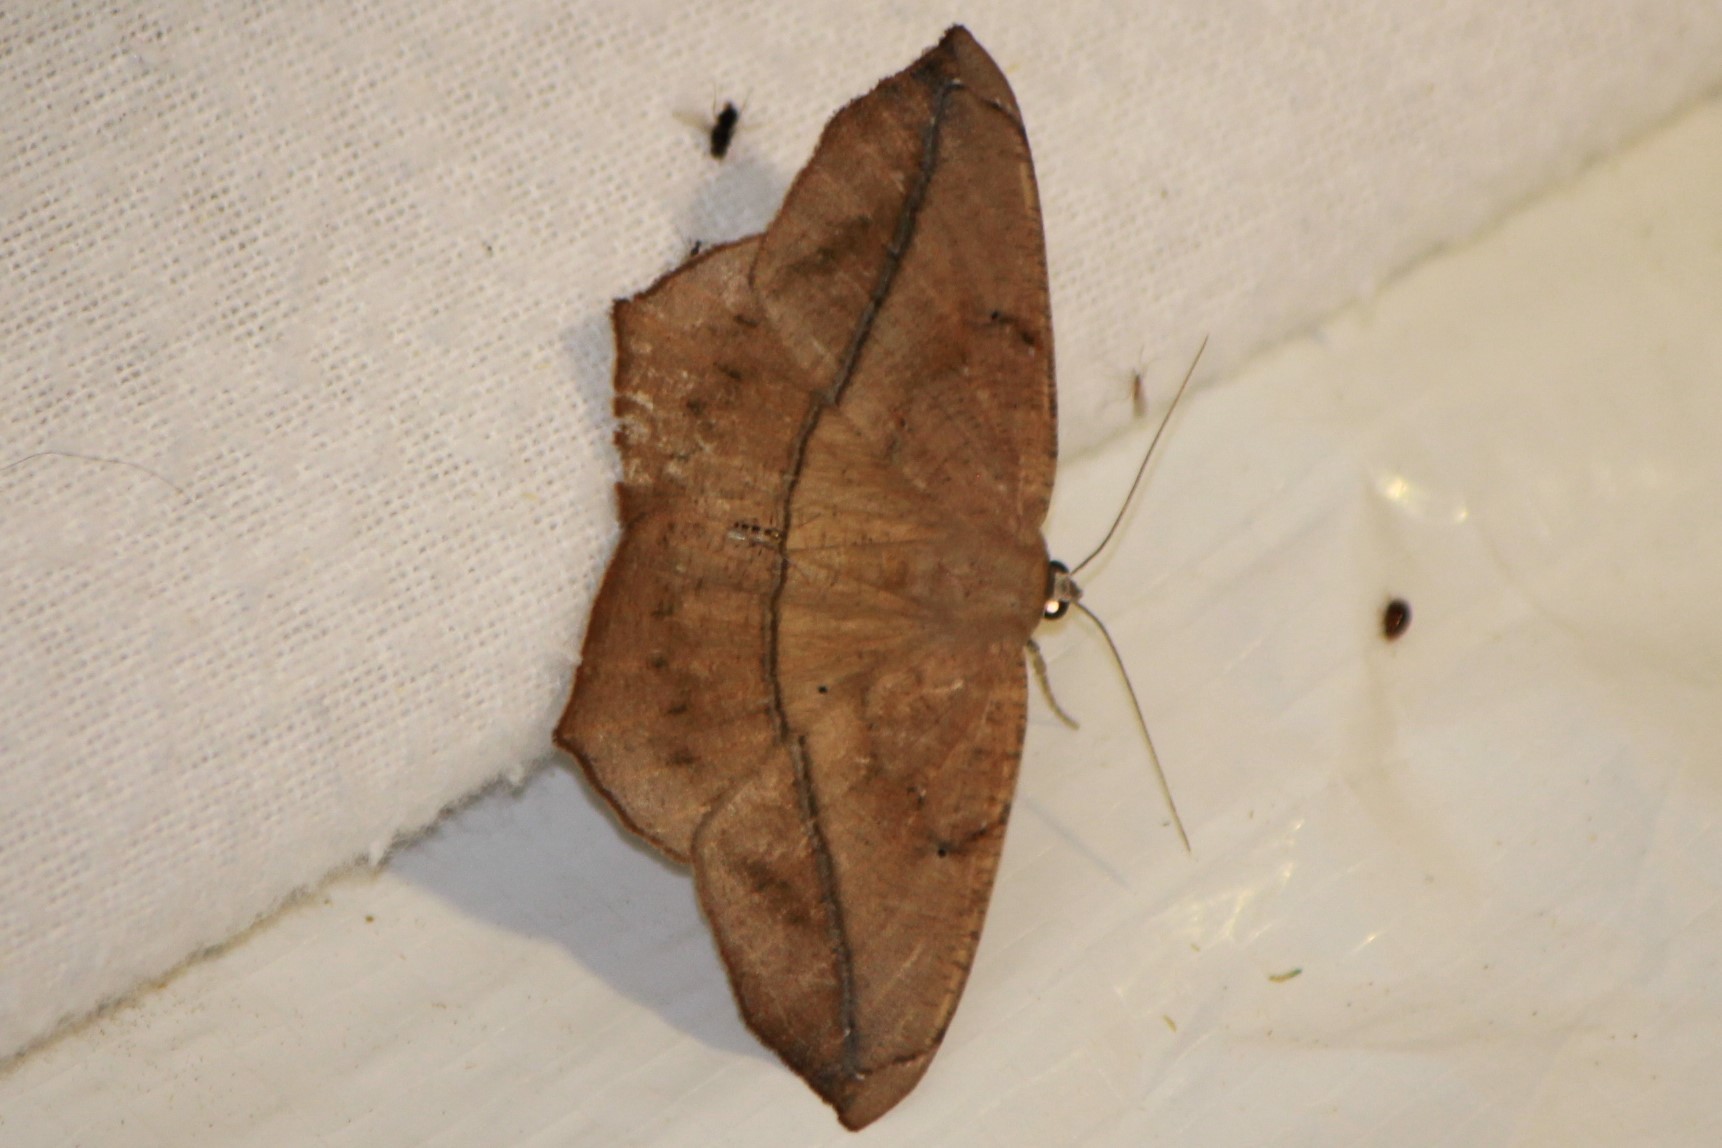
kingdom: Animalia
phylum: Arthropoda
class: Insecta
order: Lepidoptera
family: Geometridae
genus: Prochoerodes
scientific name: Prochoerodes lineola
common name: Large maple spanworm
